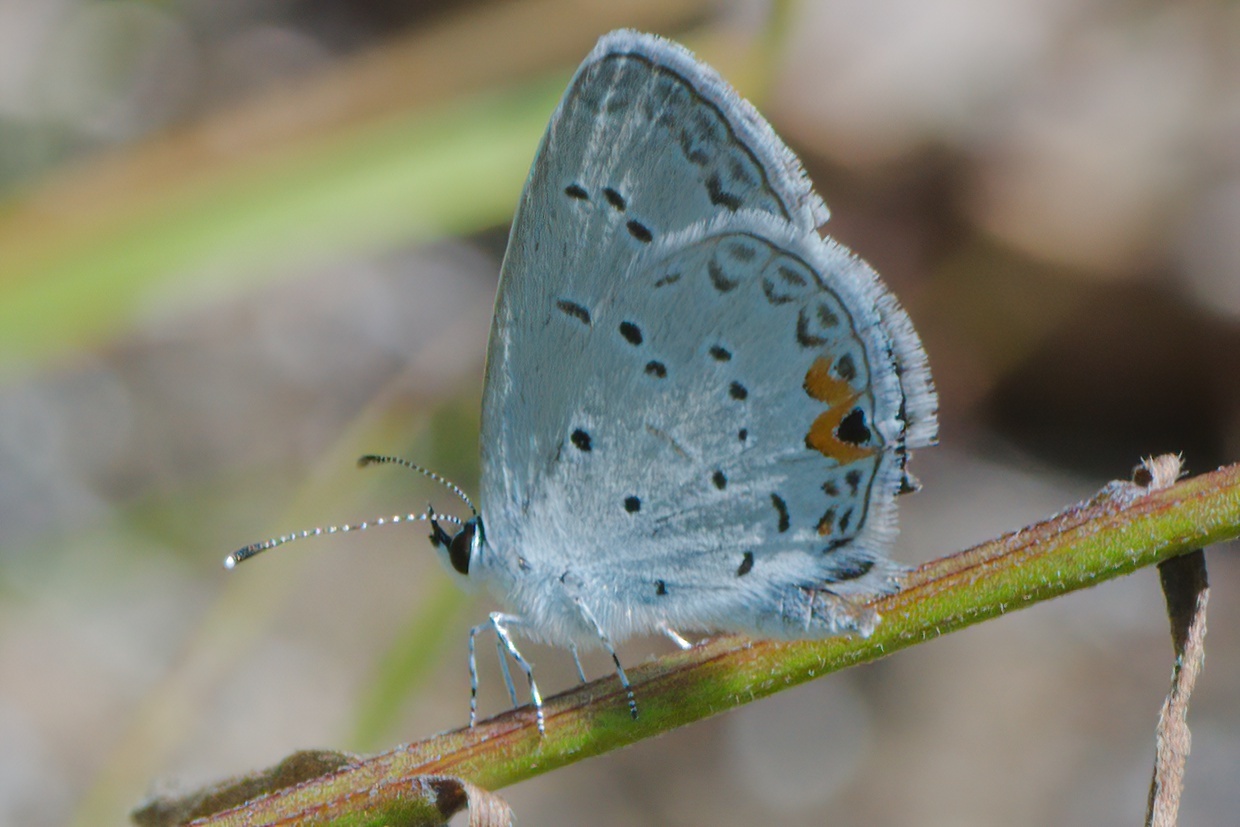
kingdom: Animalia
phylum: Arthropoda
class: Insecta
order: Lepidoptera
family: Lycaenidae
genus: Elkalyce
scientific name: Elkalyce comyntas
